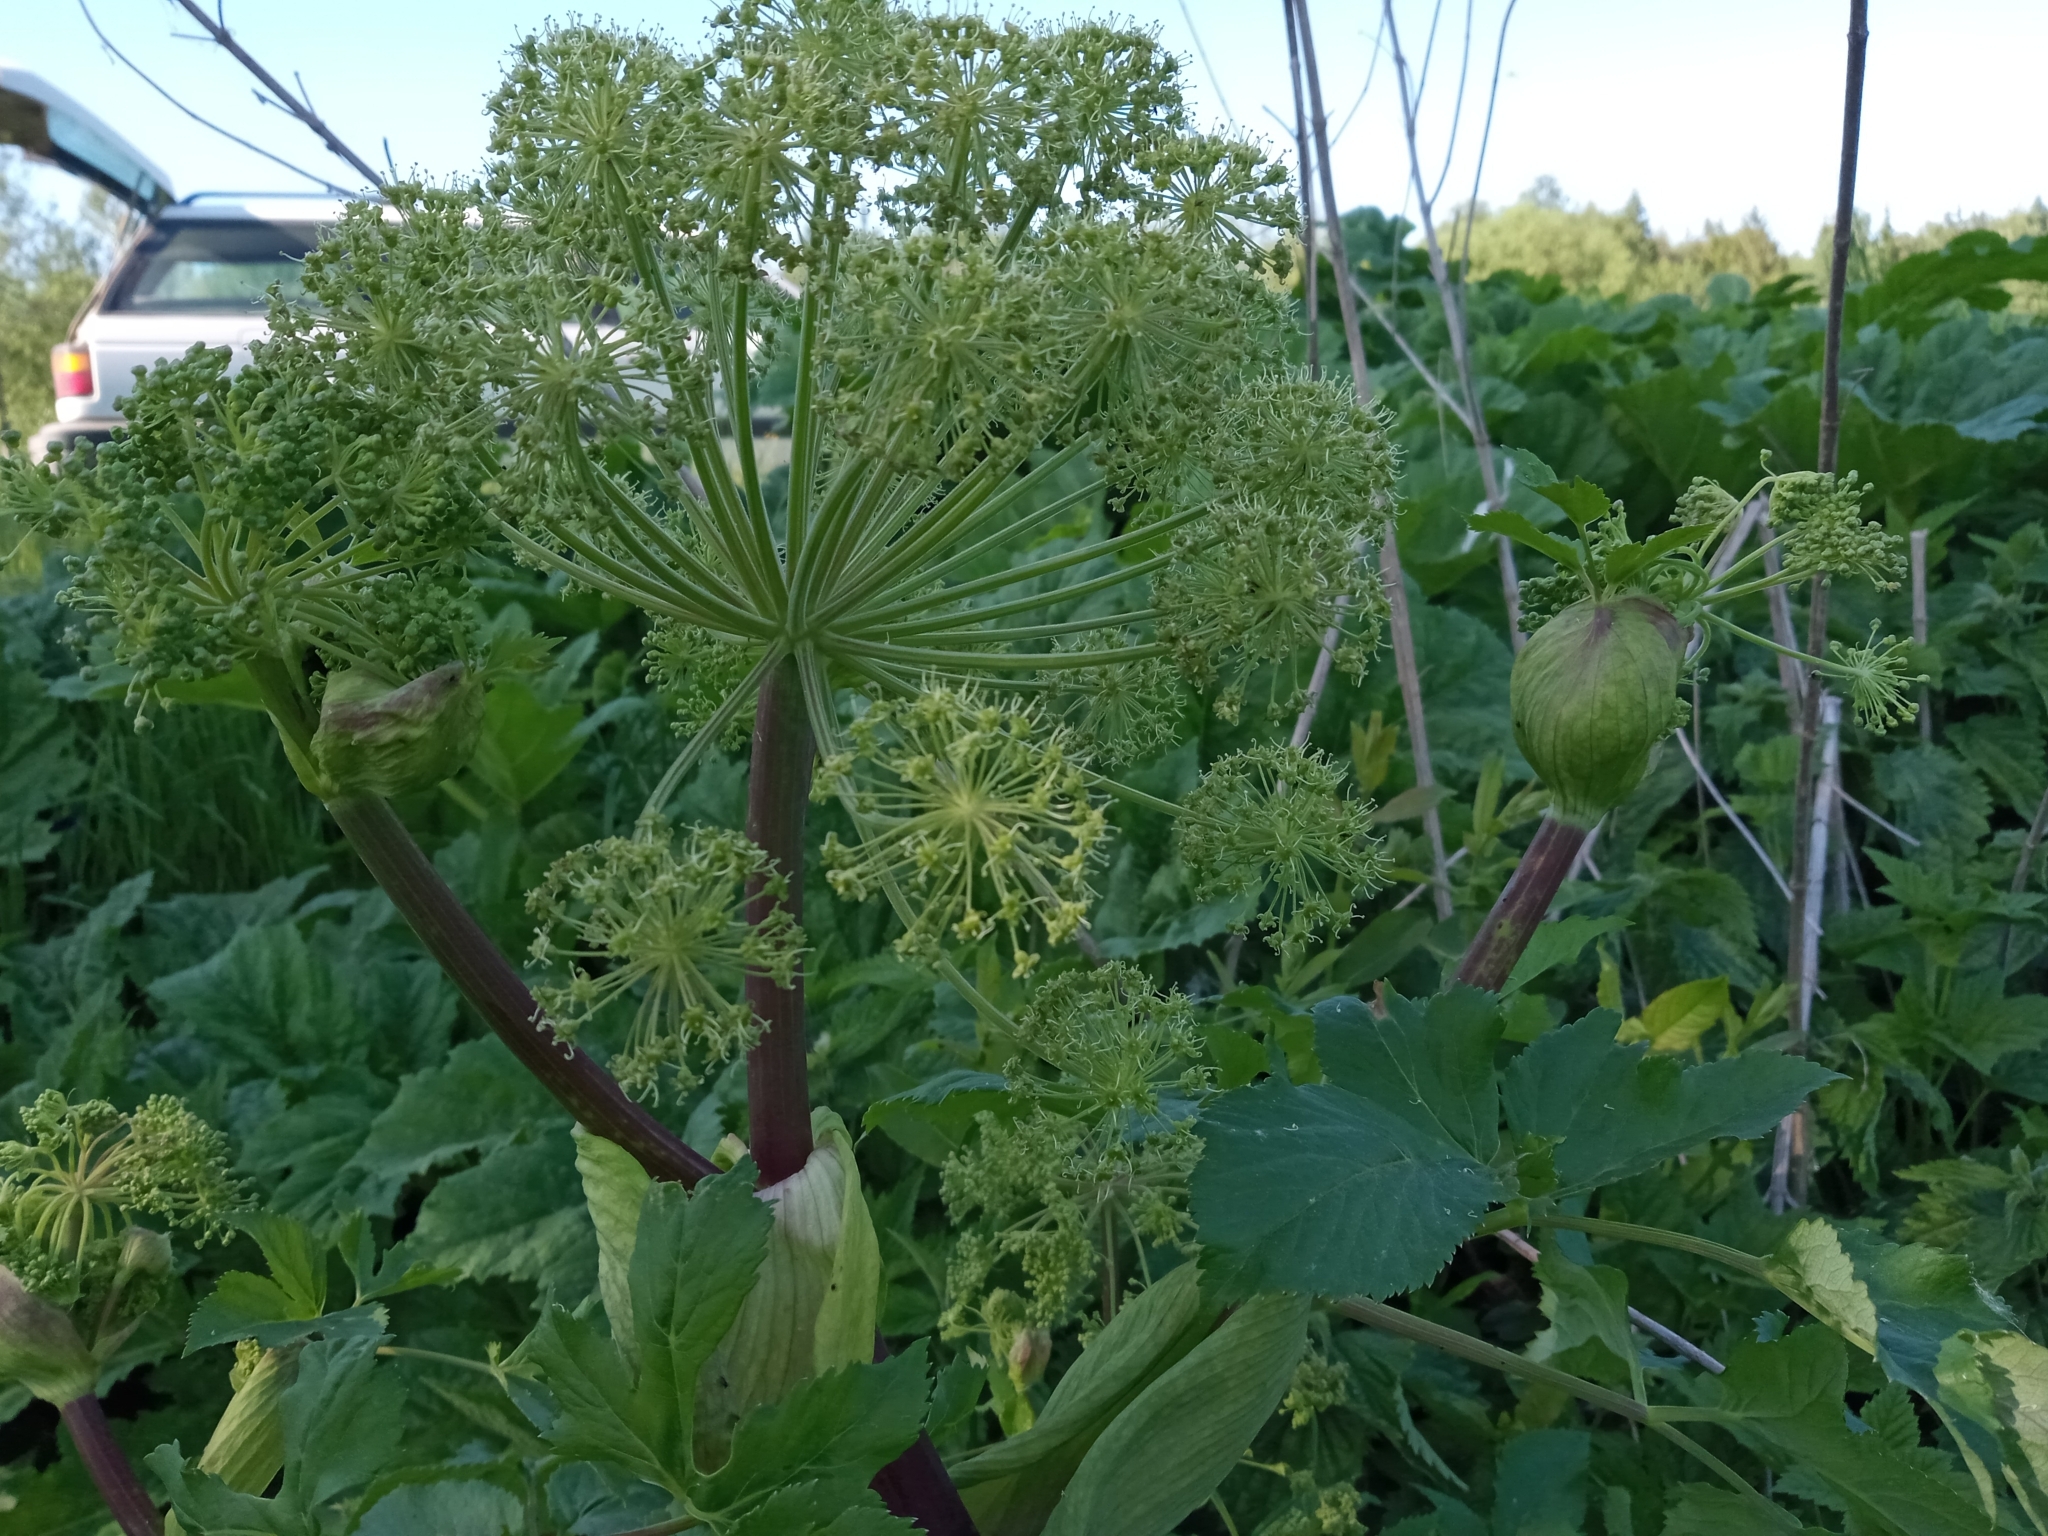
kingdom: Plantae
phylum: Tracheophyta
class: Magnoliopsida
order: Apiales
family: Apiaceae
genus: Angelica
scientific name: Angelica archangelica
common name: Garden angelica
